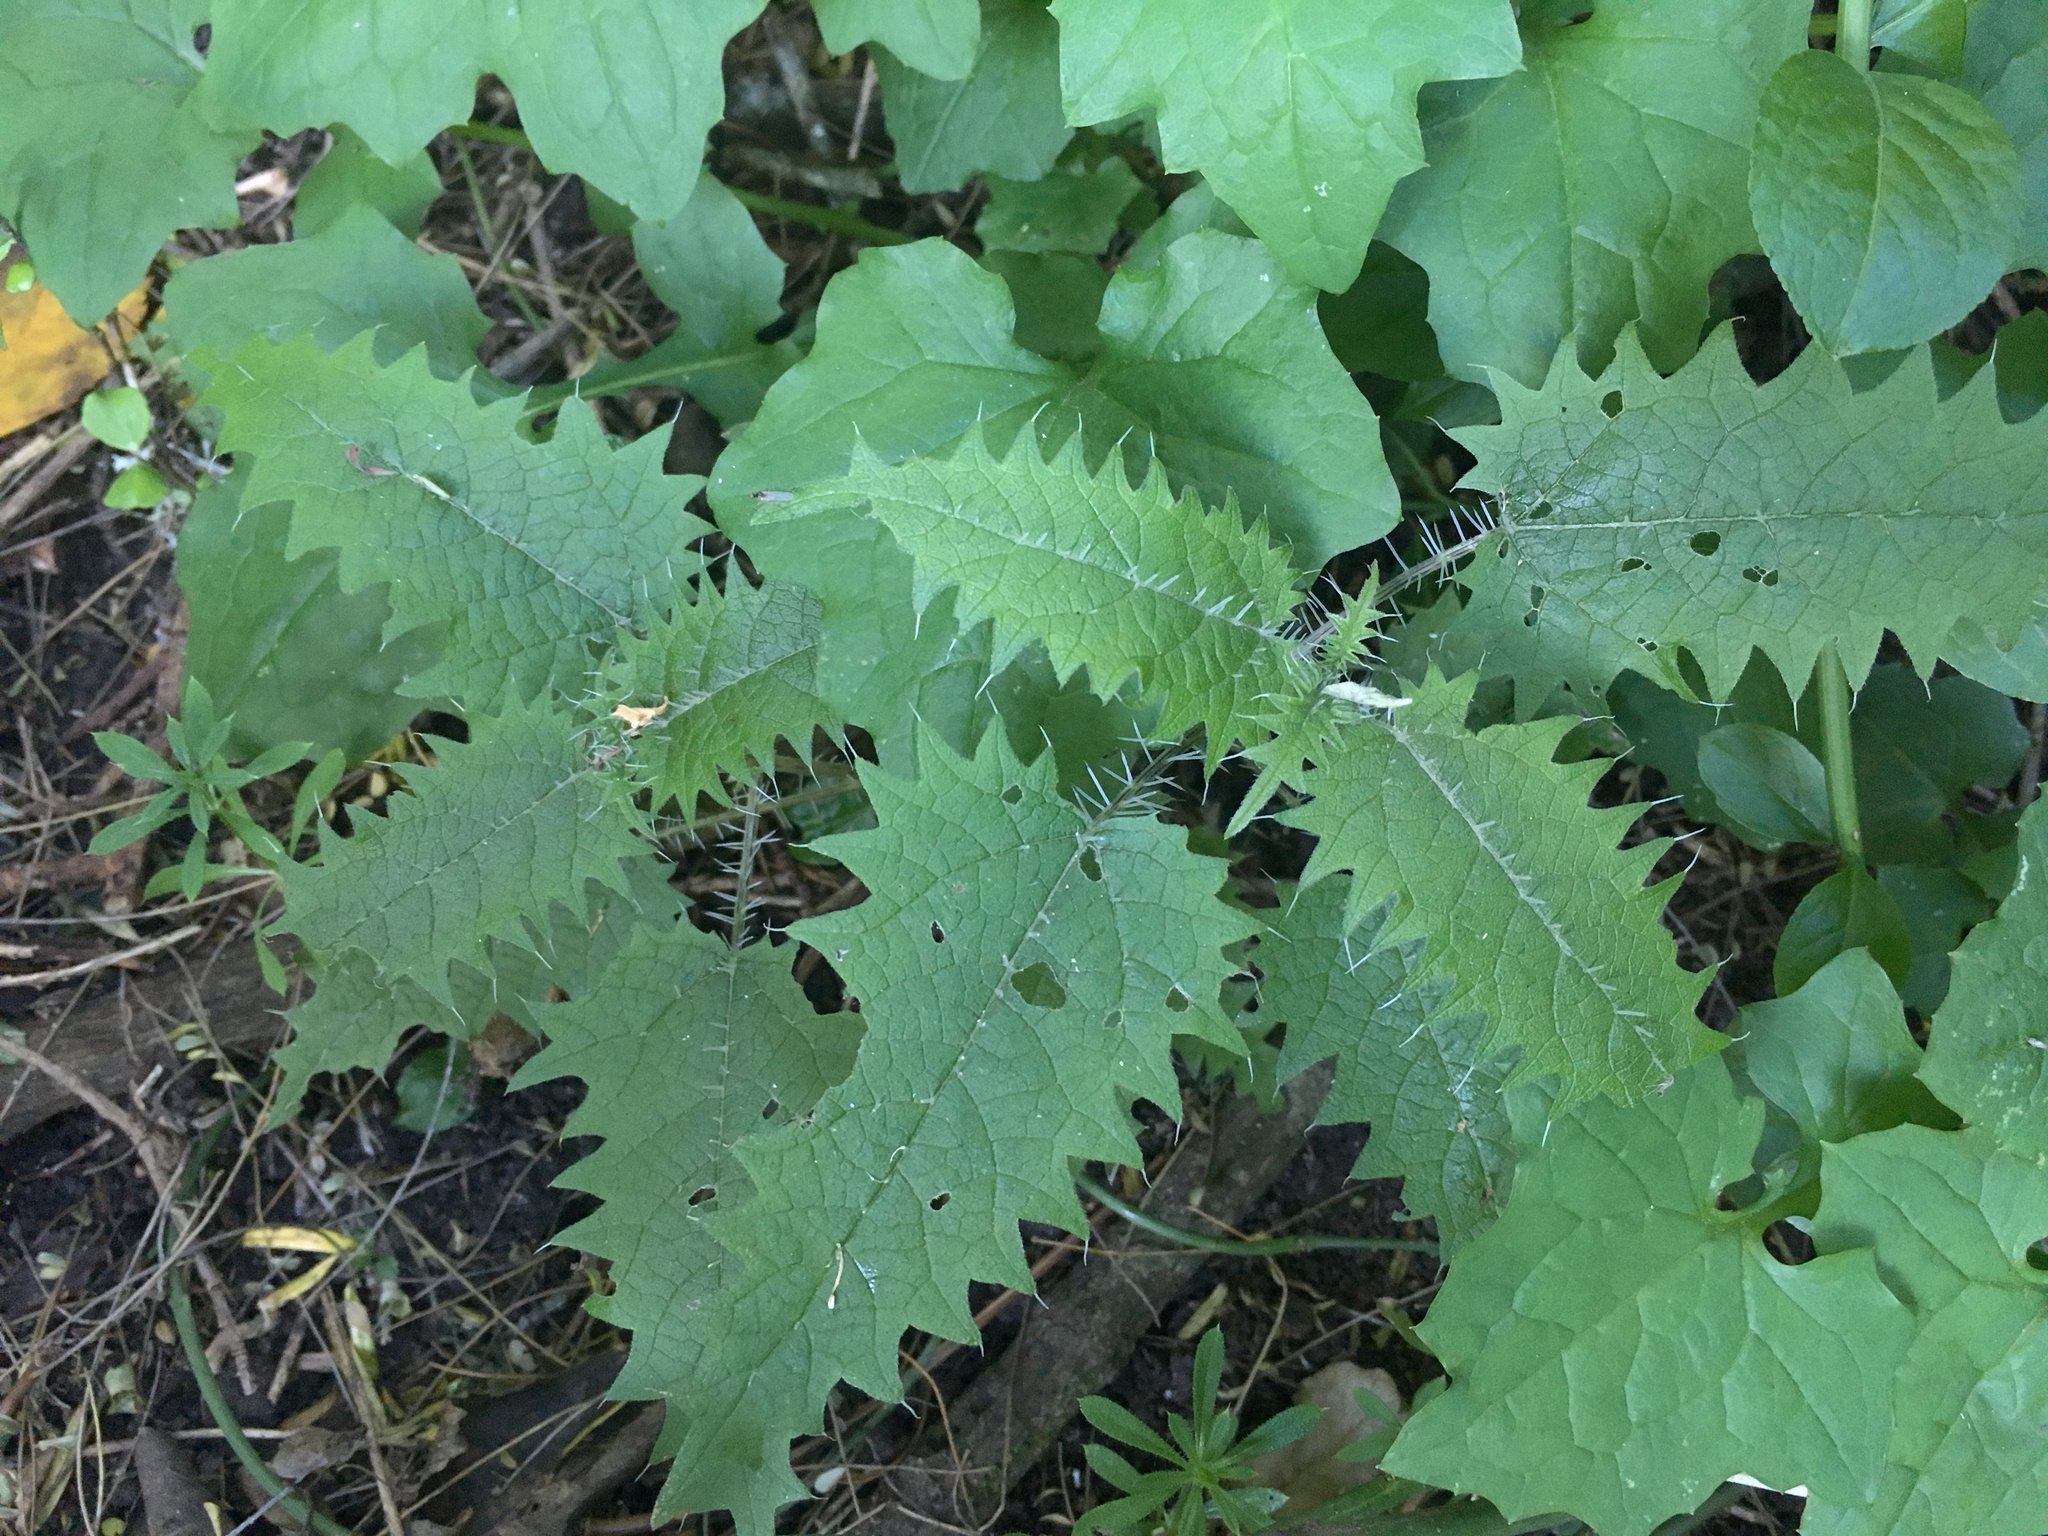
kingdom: Plantae
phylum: Tracheophyta
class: Magnoliopsida
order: Rosales
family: Urticaceae
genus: Urtica
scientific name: Urtica ferox
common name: Tree nettle
